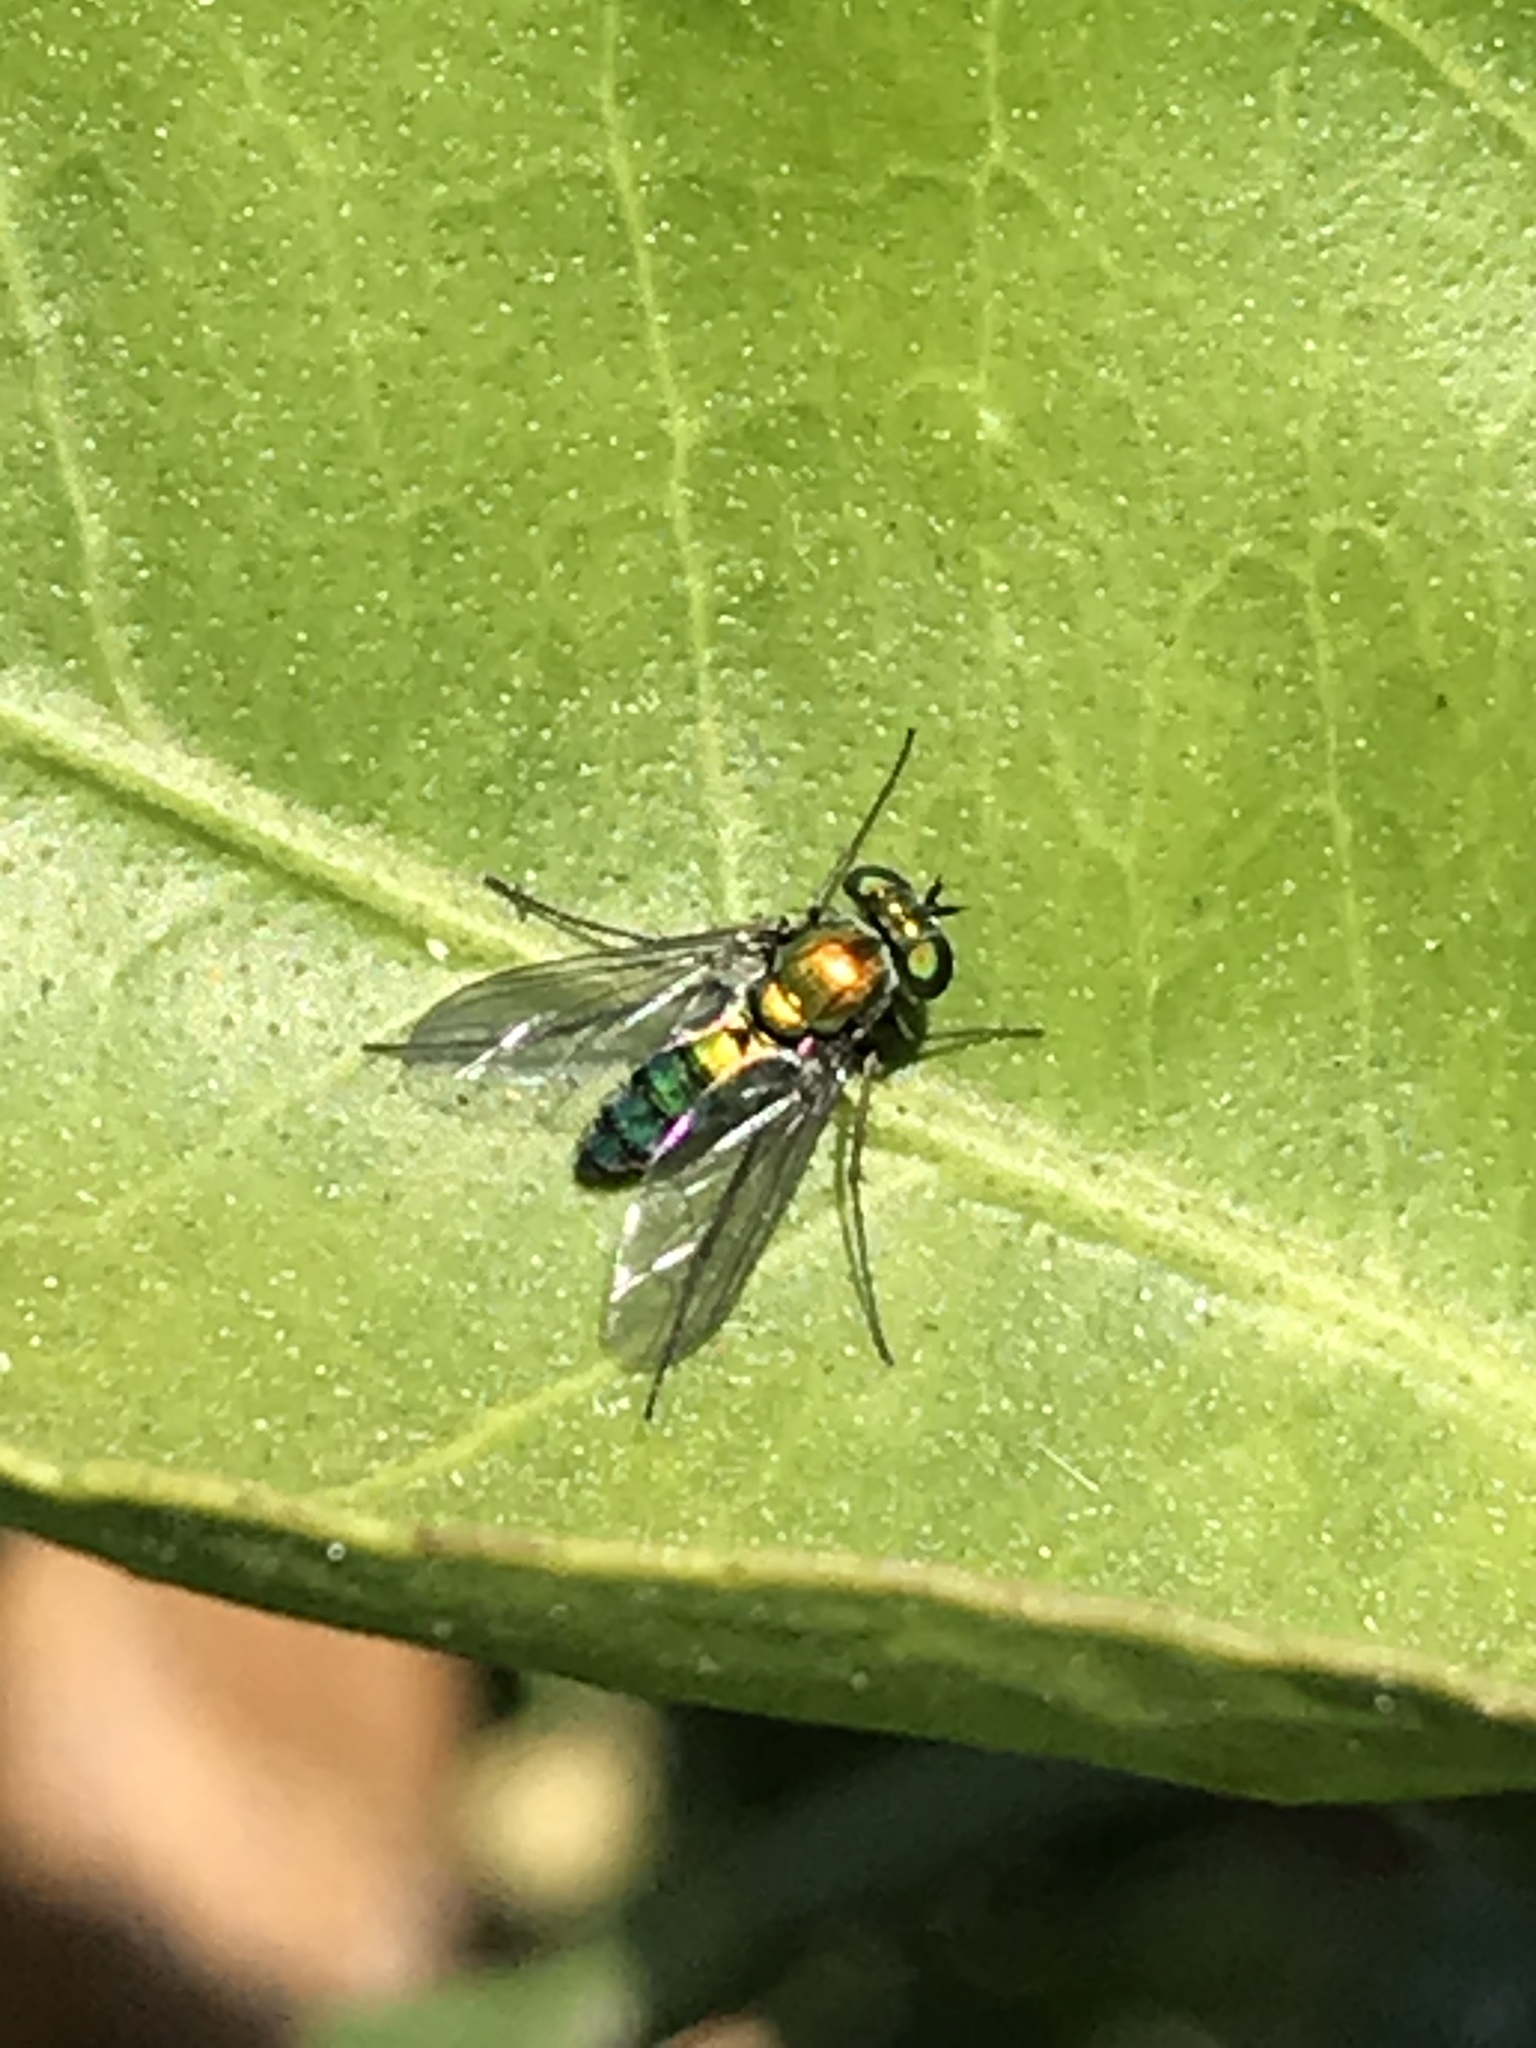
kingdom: Animalia
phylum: Arthropoda
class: Insecta
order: Diptera
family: Dolichopodidae
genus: Condylostylus
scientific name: Condylostylus longicornis
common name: Long-legged fly
